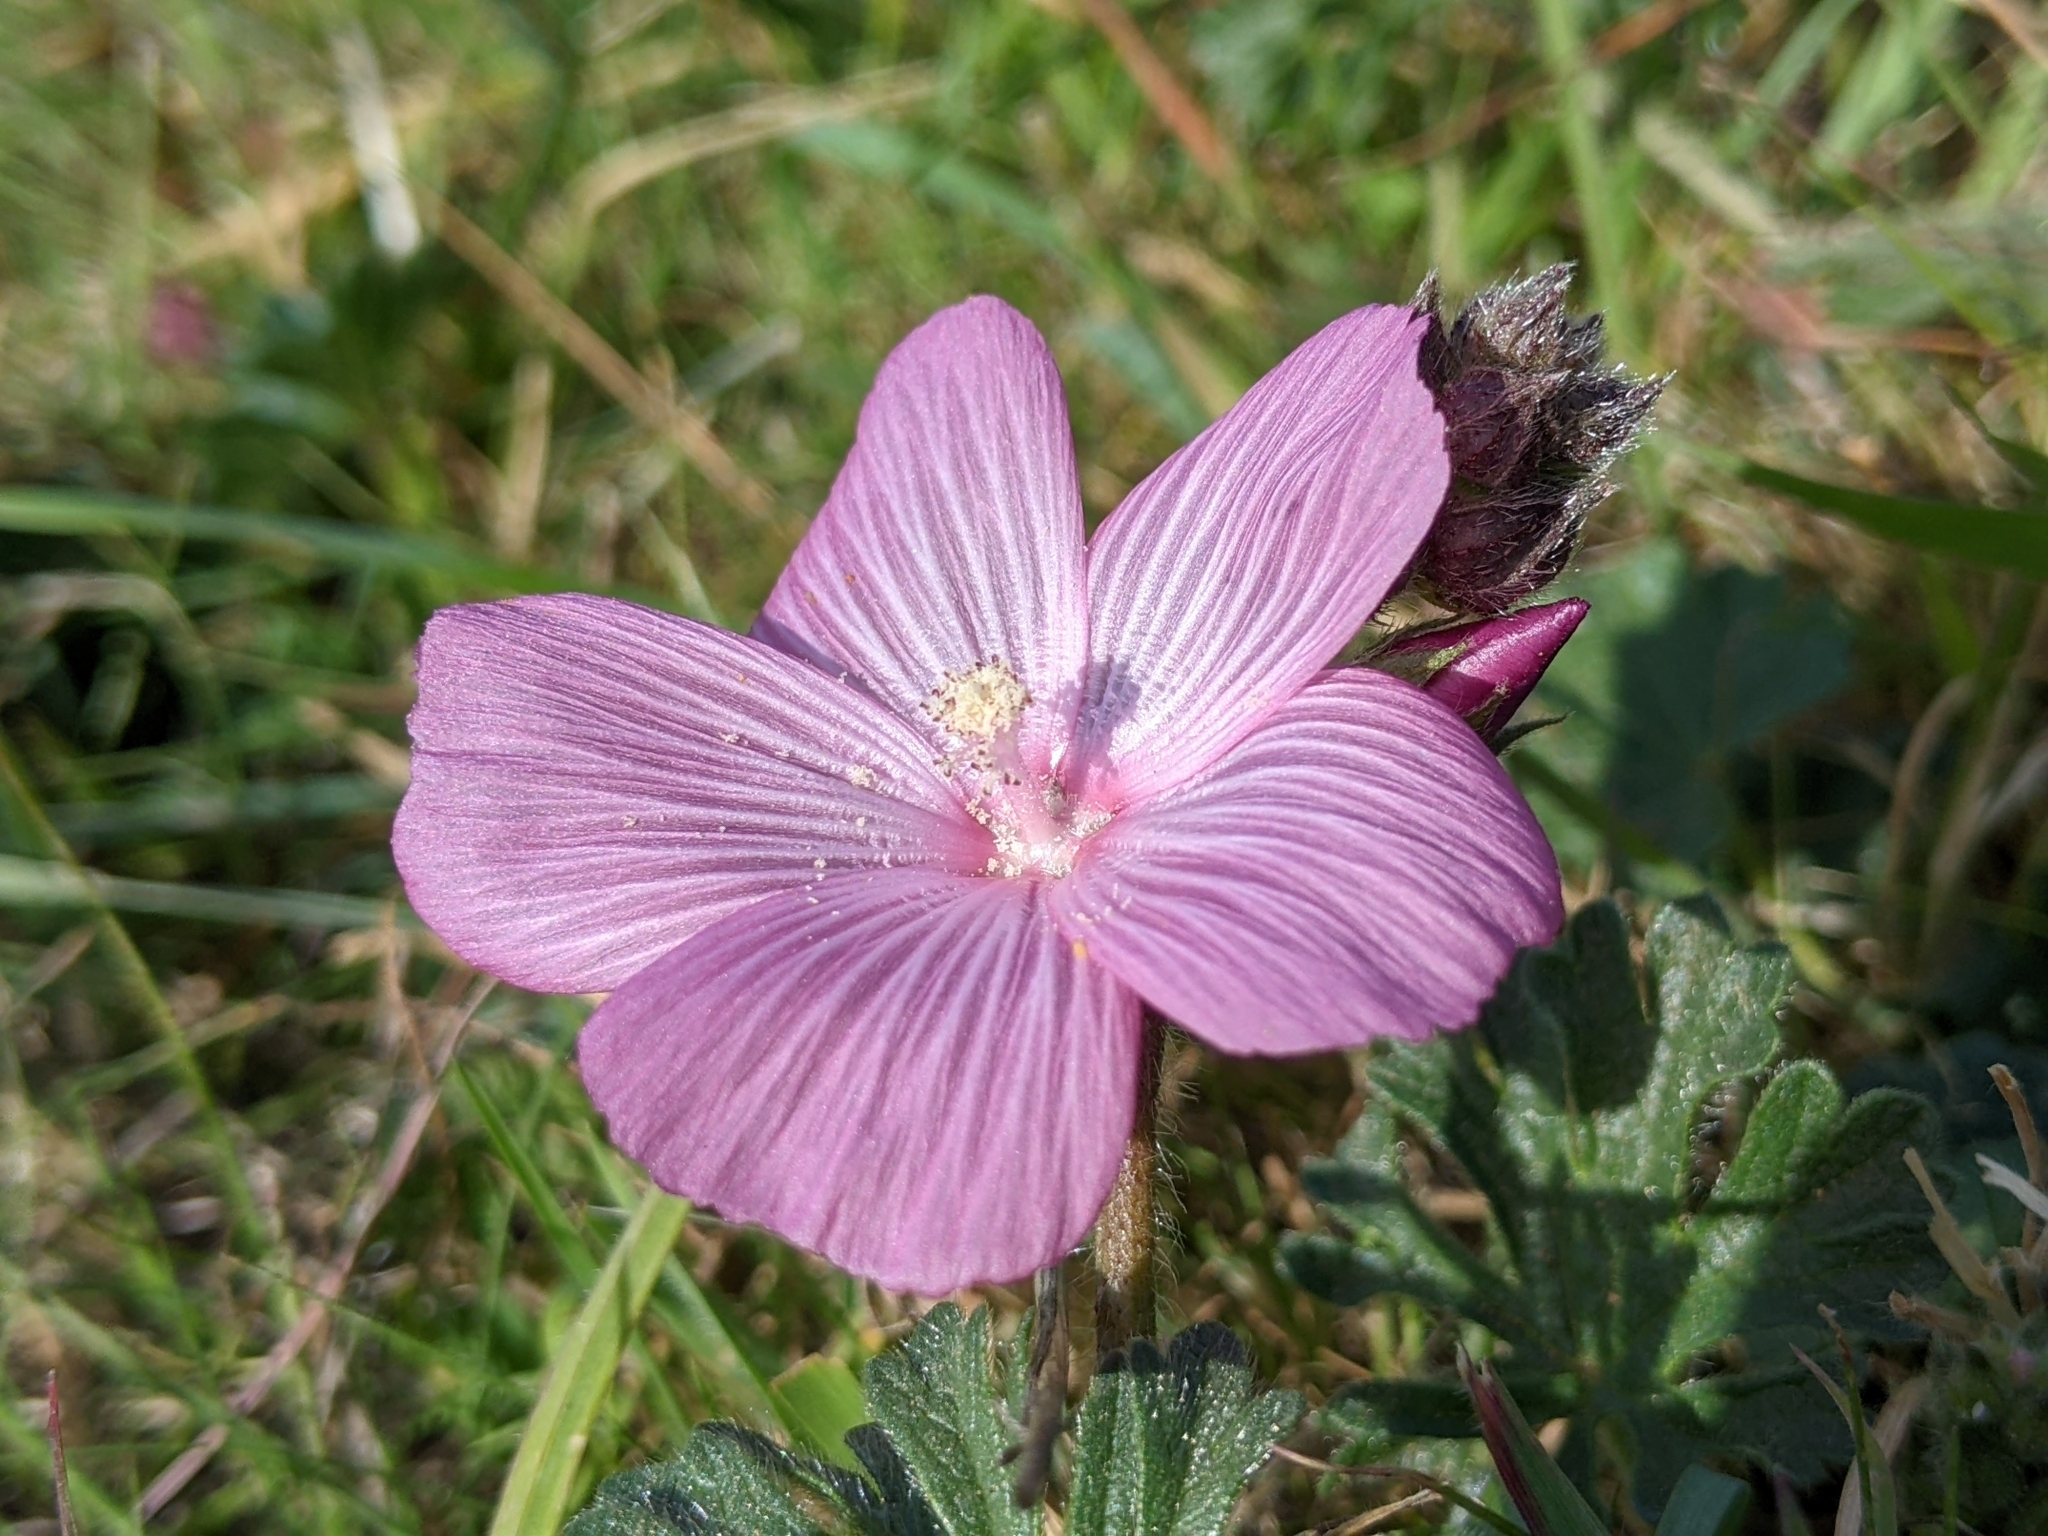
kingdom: Plantae
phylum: Tracheophyta
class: Magnoliopsida
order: Malvales
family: Malvaceae
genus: Sidalcea
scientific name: Sidalcea malviflora
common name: Greek mallow
